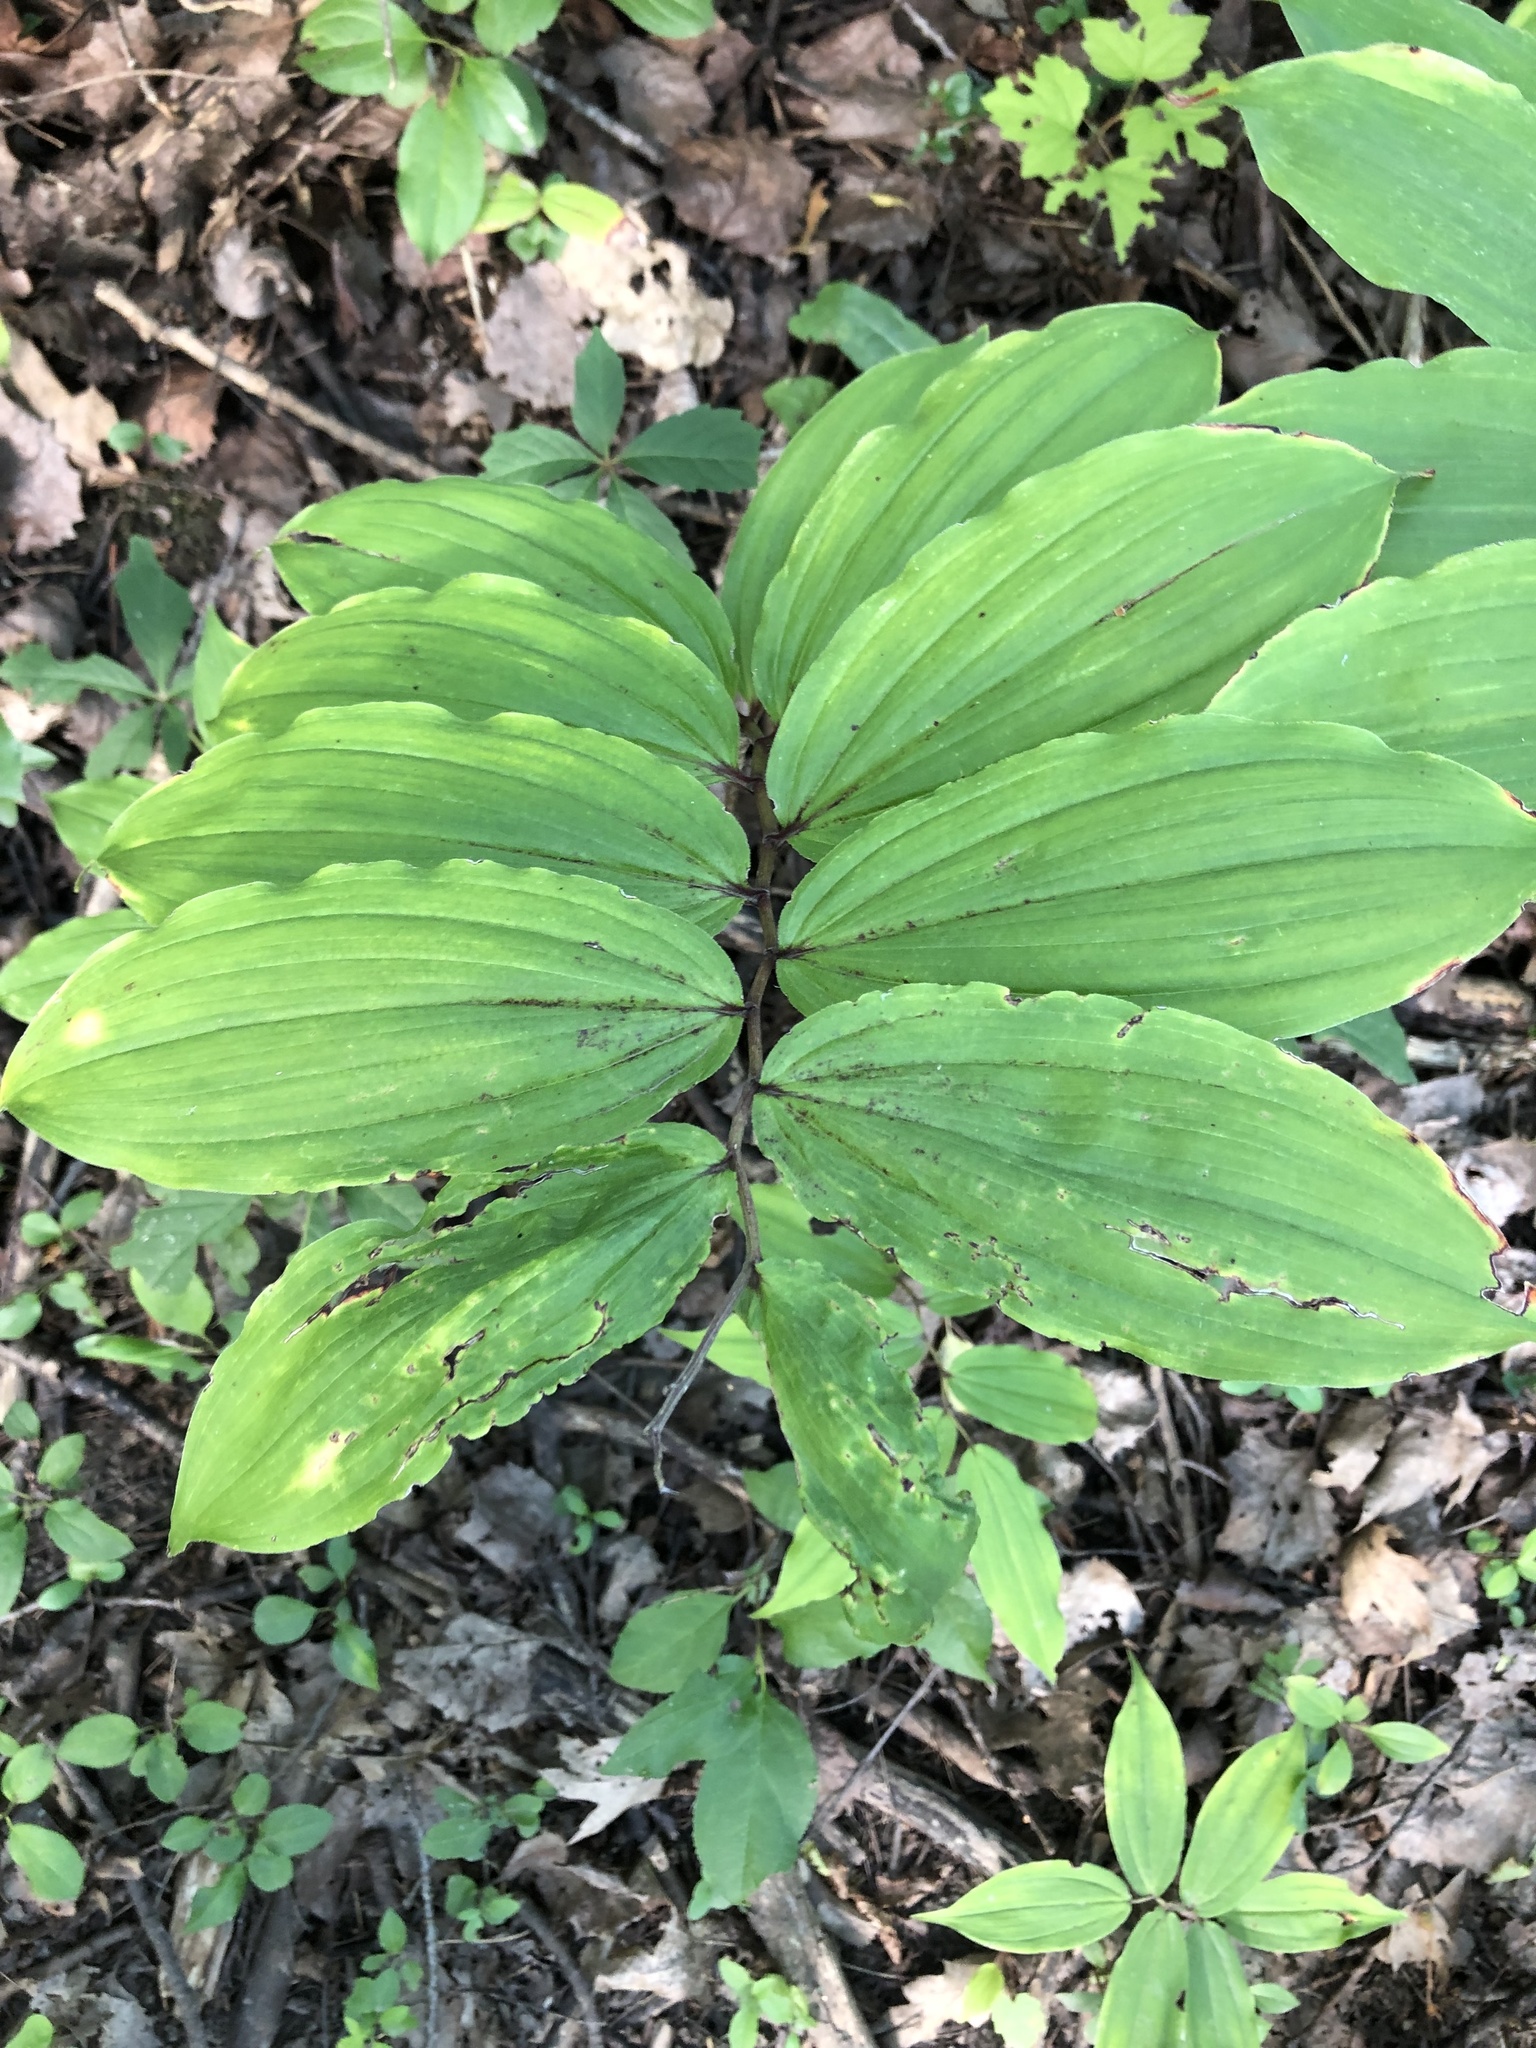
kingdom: Plantae
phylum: Tracheophyta
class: Liliopsida
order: Asparagales
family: Asparagaceae
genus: Maianthemum
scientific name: Maianthemum racemosum
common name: False spikenard
